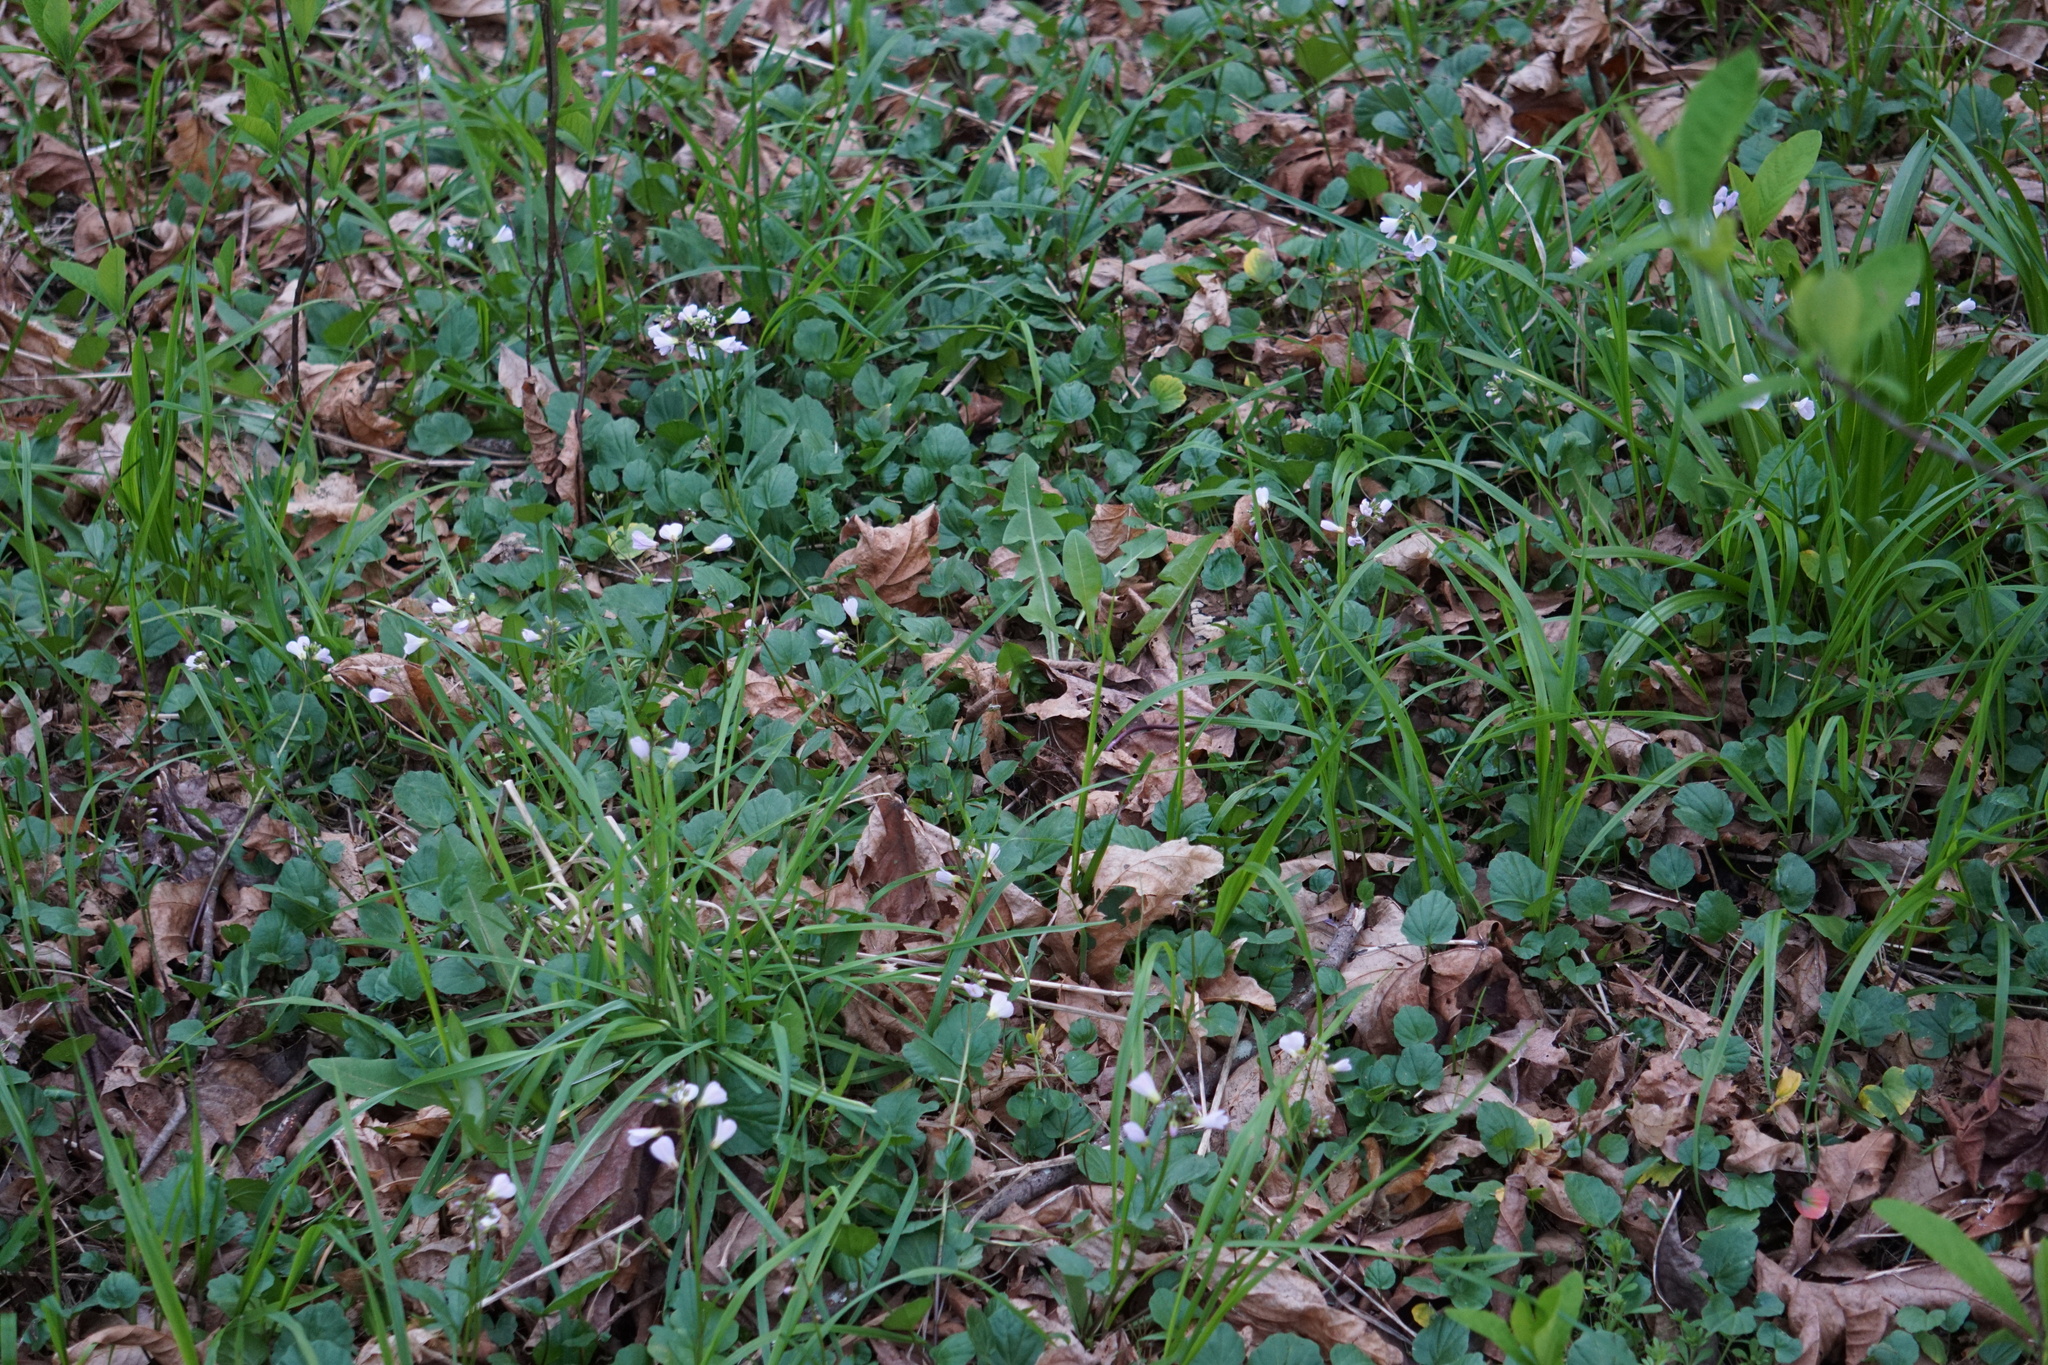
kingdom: Plantae
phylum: Tracheophyta
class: Magnoliopsida
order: Brassicales
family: Brassicaceae
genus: Cardamine
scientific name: Cardamine nuttallii
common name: Nuttall's toothwort
